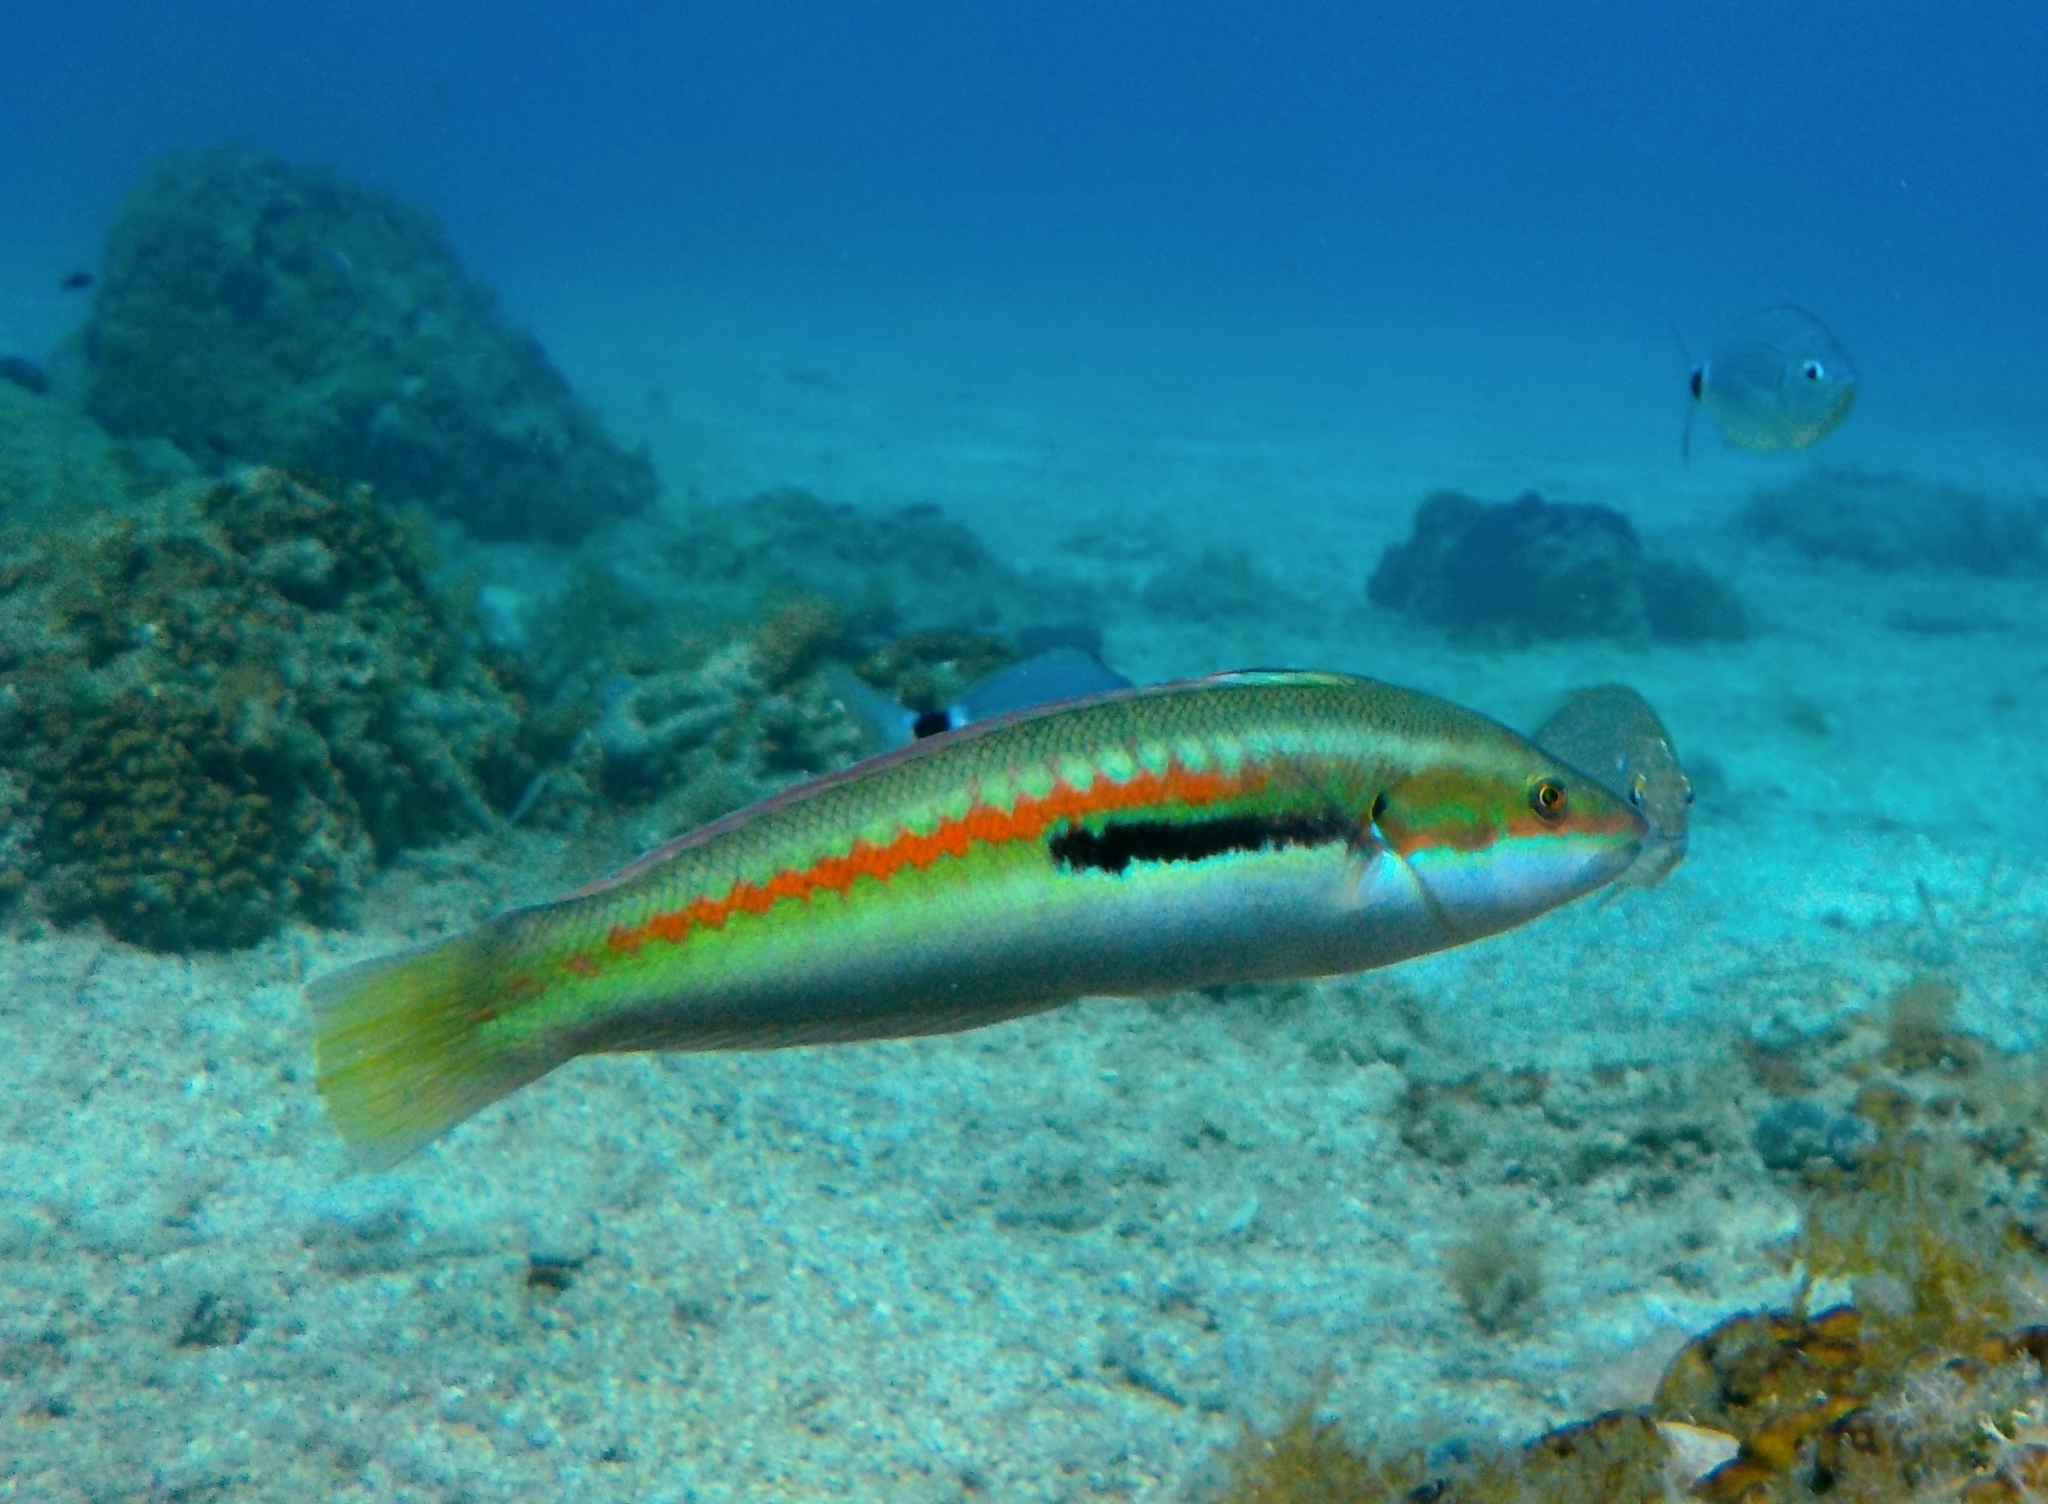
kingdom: Animalia
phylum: Chordata
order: Perciformes
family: Labridae
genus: Coris
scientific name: Coris julis
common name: Rainbow wrasse
